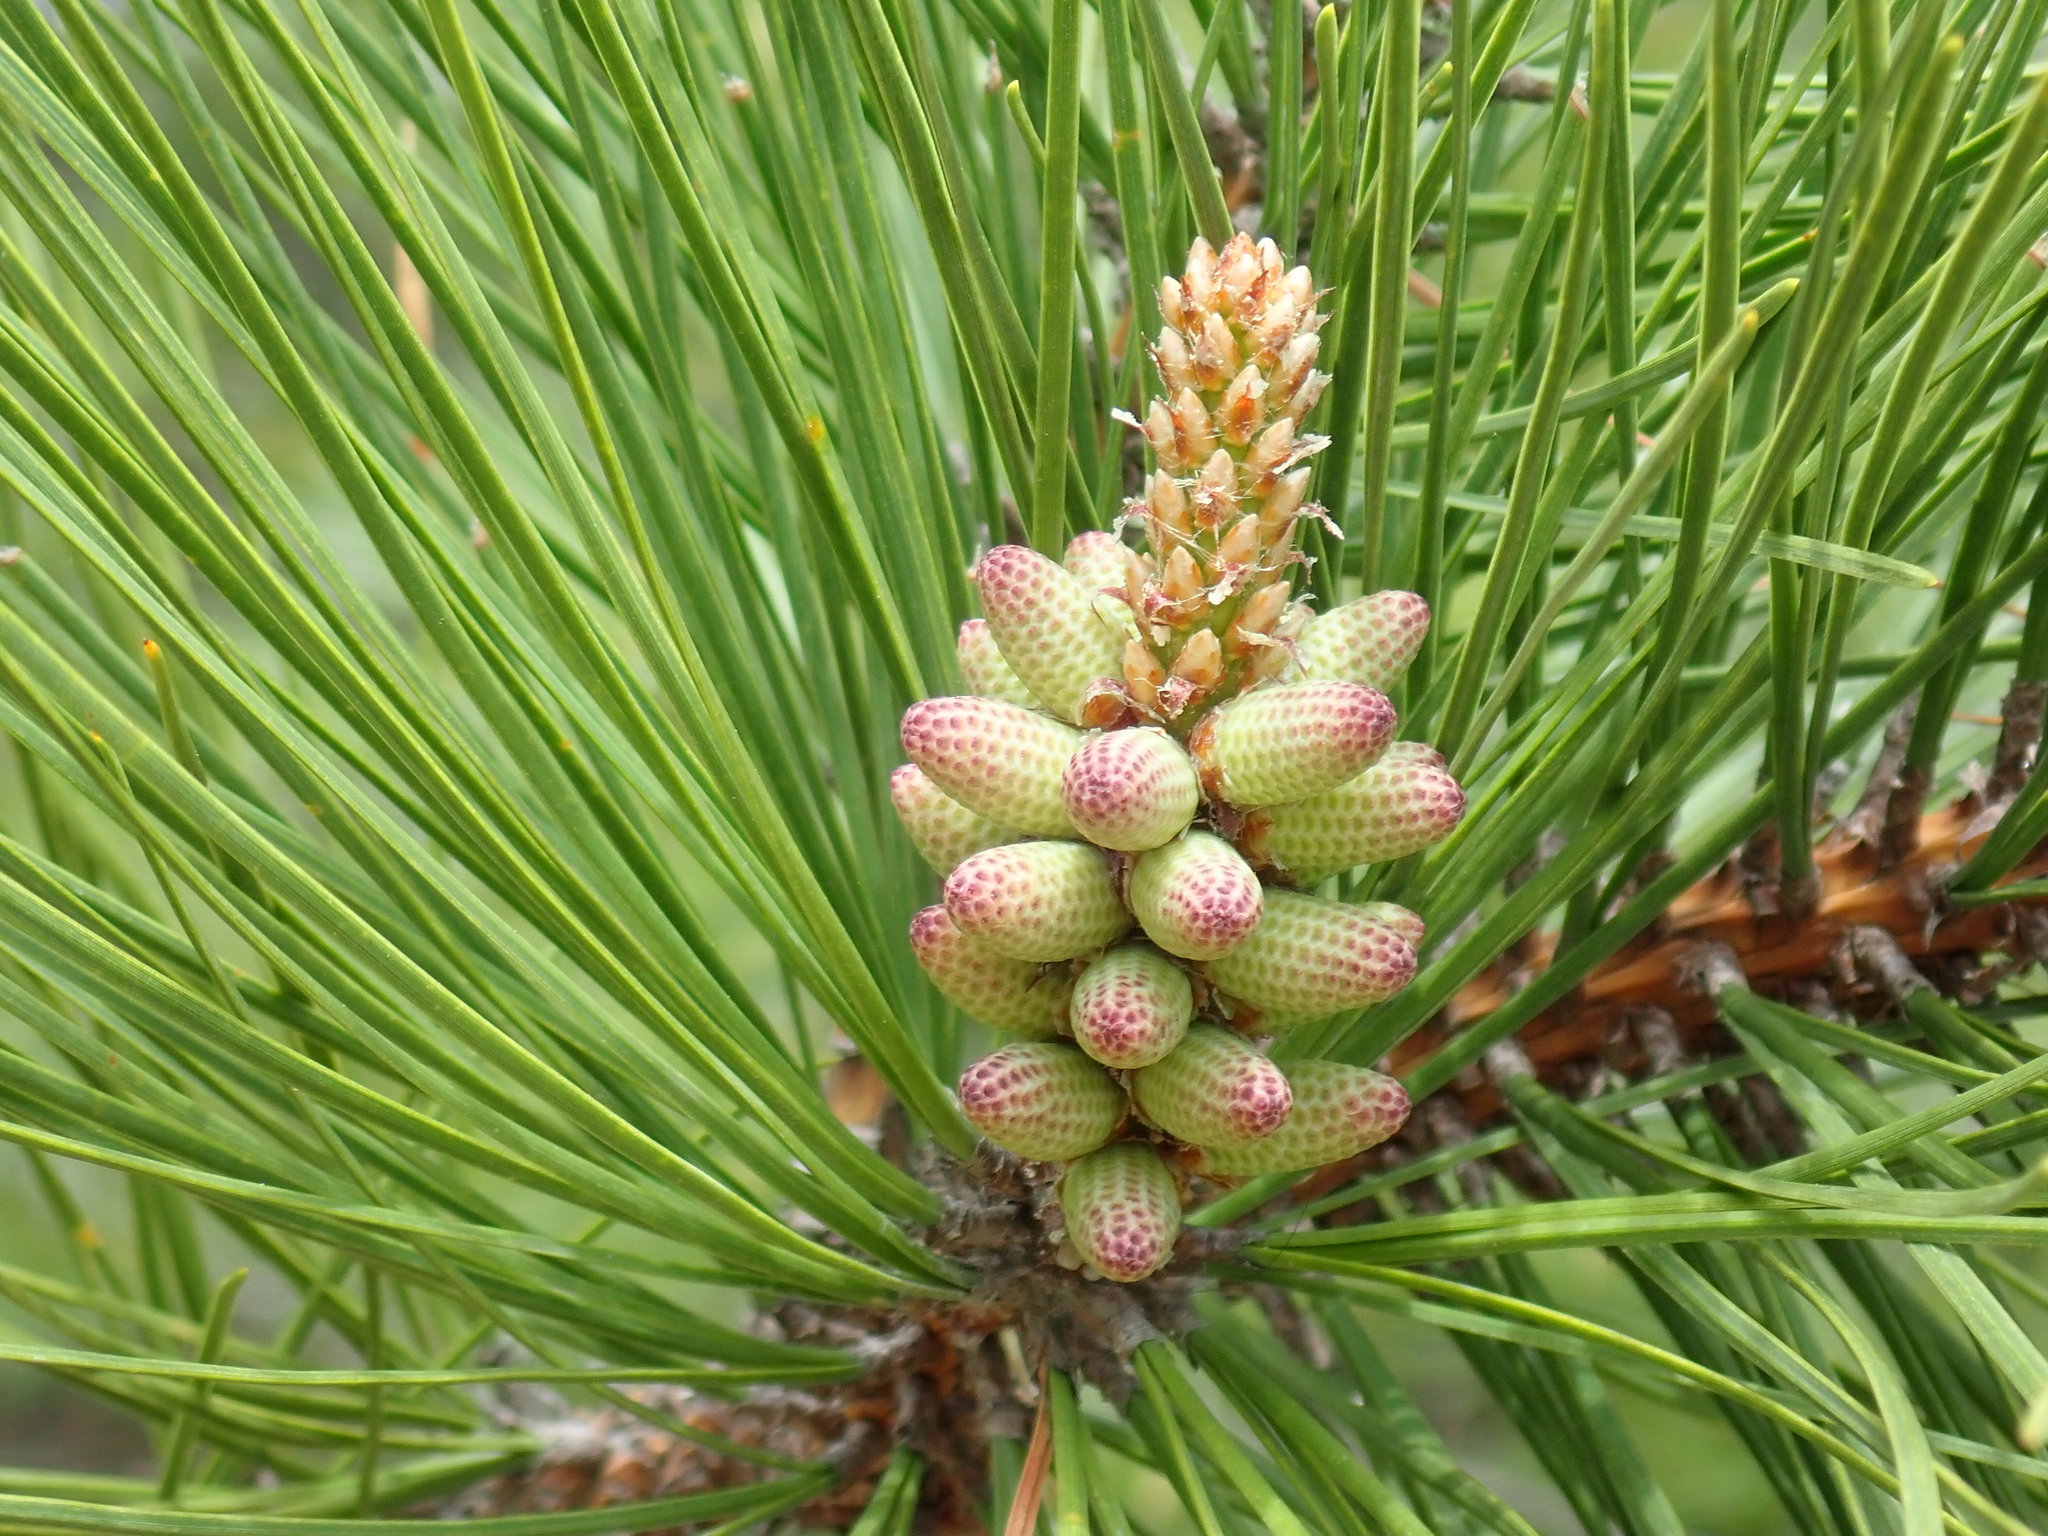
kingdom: Plantae
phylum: Tracheophyta
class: Pinopsida
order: Pinales
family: Pinaceae
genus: Pinus
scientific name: Pinus rigida
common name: Pitch pine
